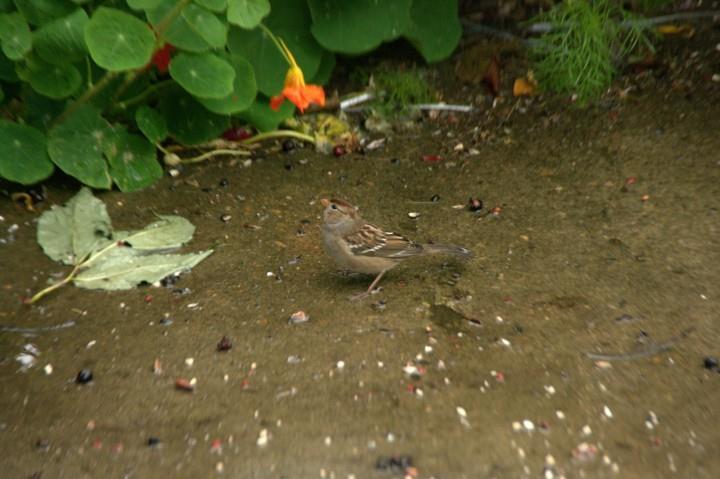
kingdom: Animalia
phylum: Chordata
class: Aves
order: Passeriformes
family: Passerellidae
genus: Zonotrichia
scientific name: Zonotrichia leucophrys
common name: White-crowned sparrow
